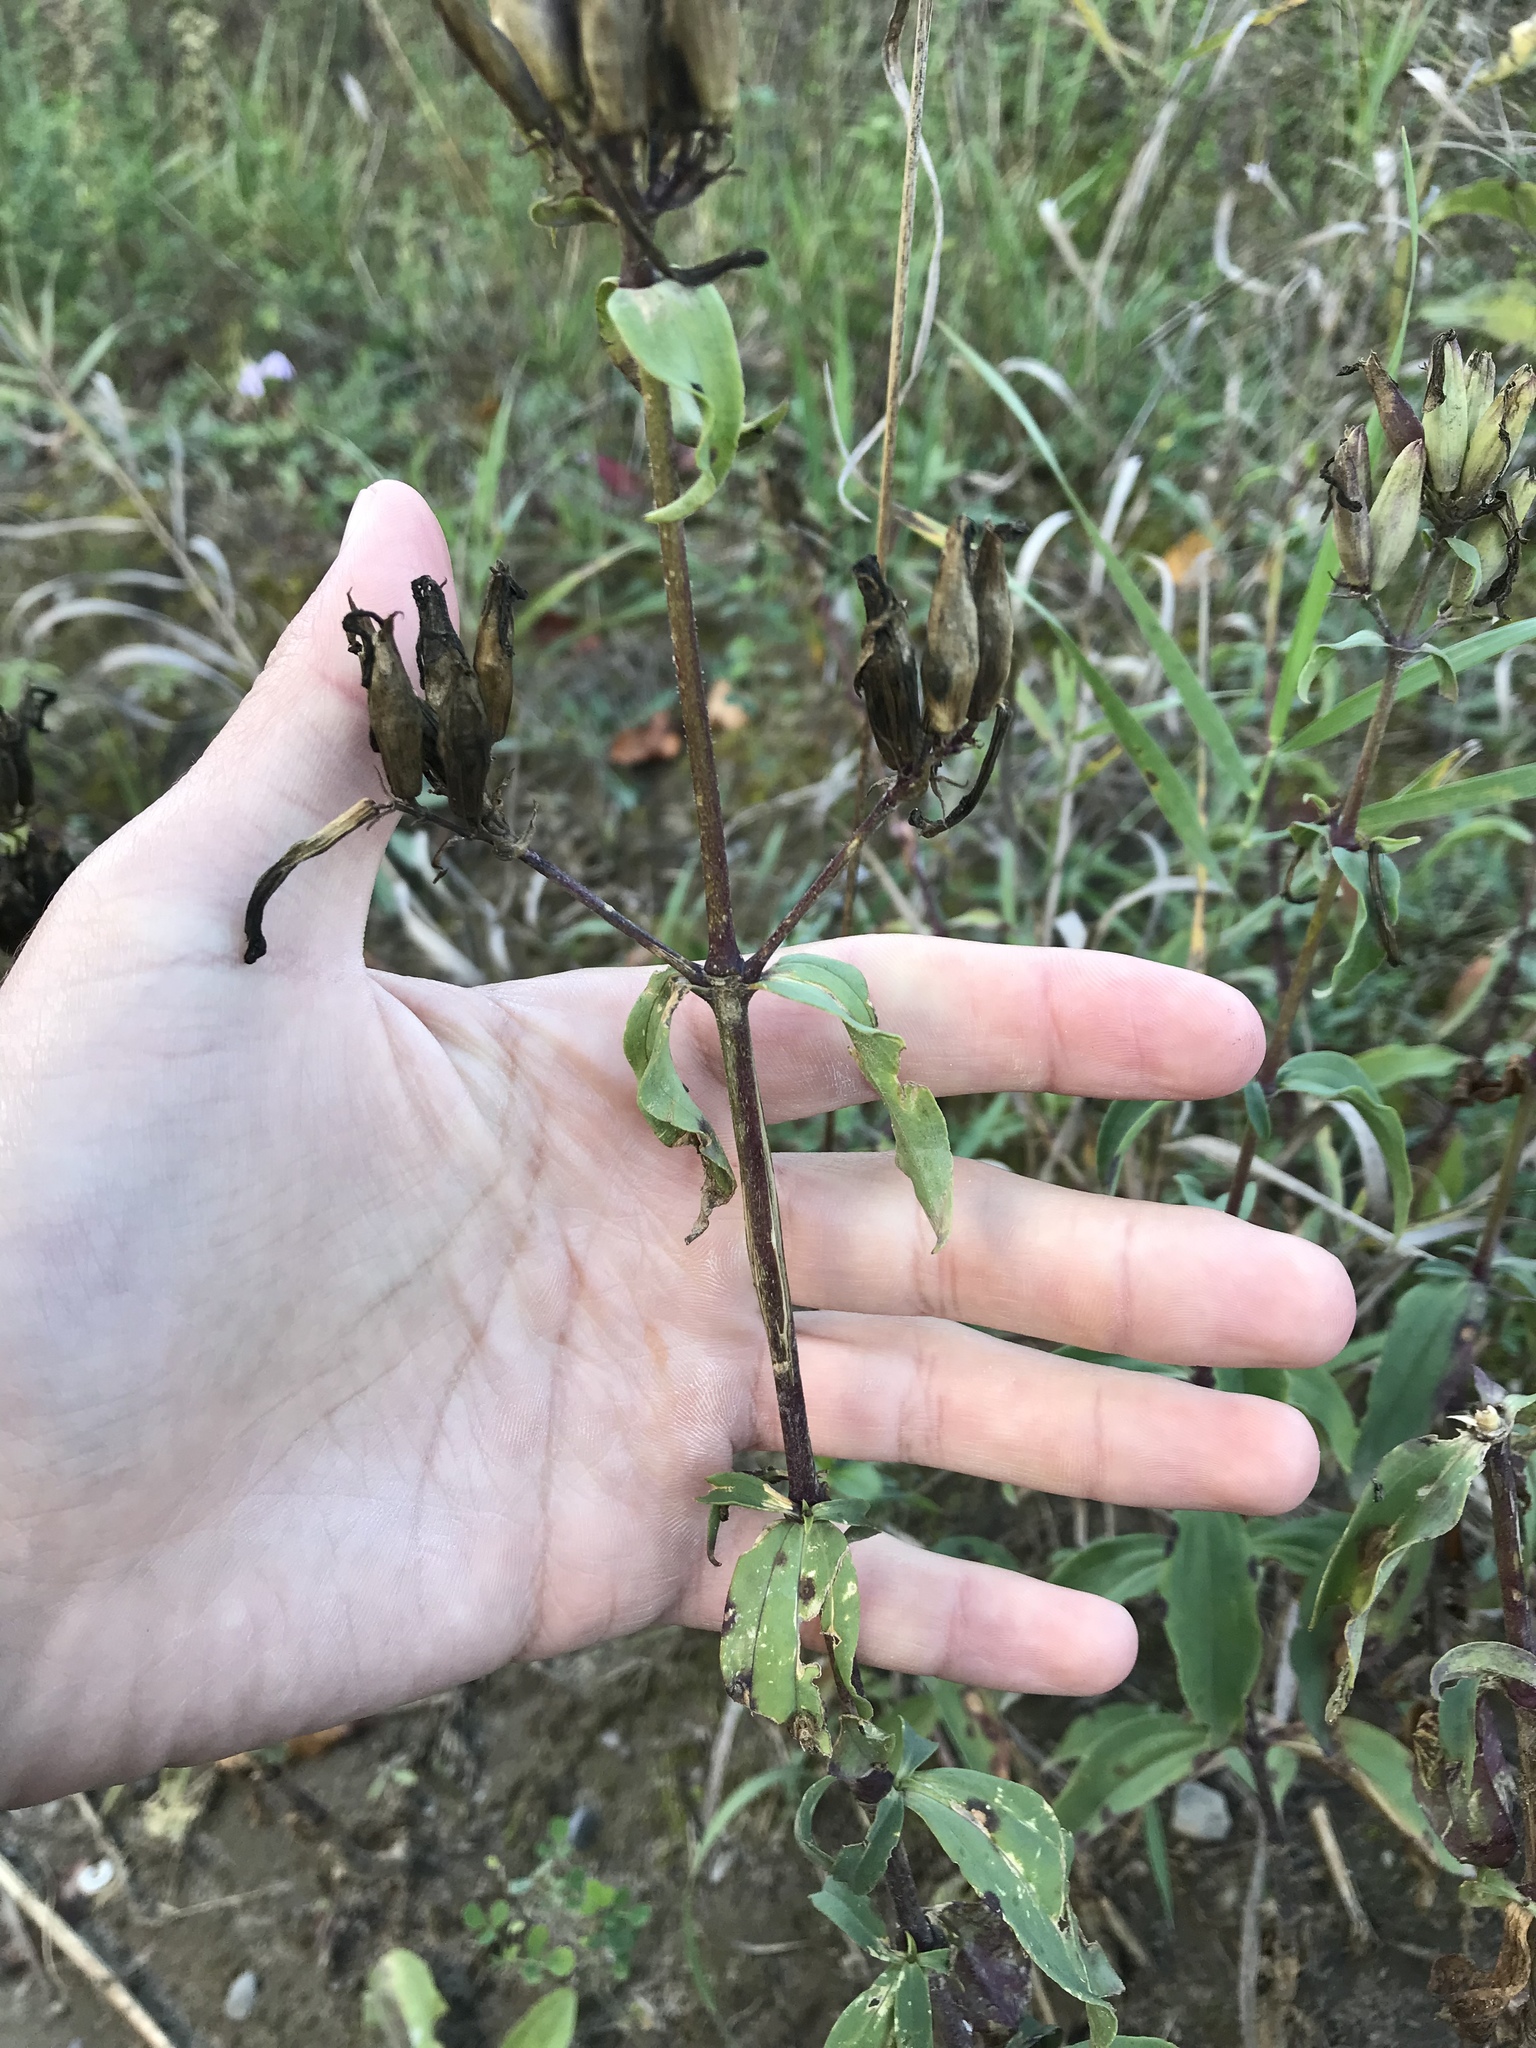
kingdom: Plantae
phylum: Tracheophyta
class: Magnoliopsida
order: Caryophyllales
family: Caryophyllaceae
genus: Saponaria
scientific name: Saponaria officinalis
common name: Soapwort
